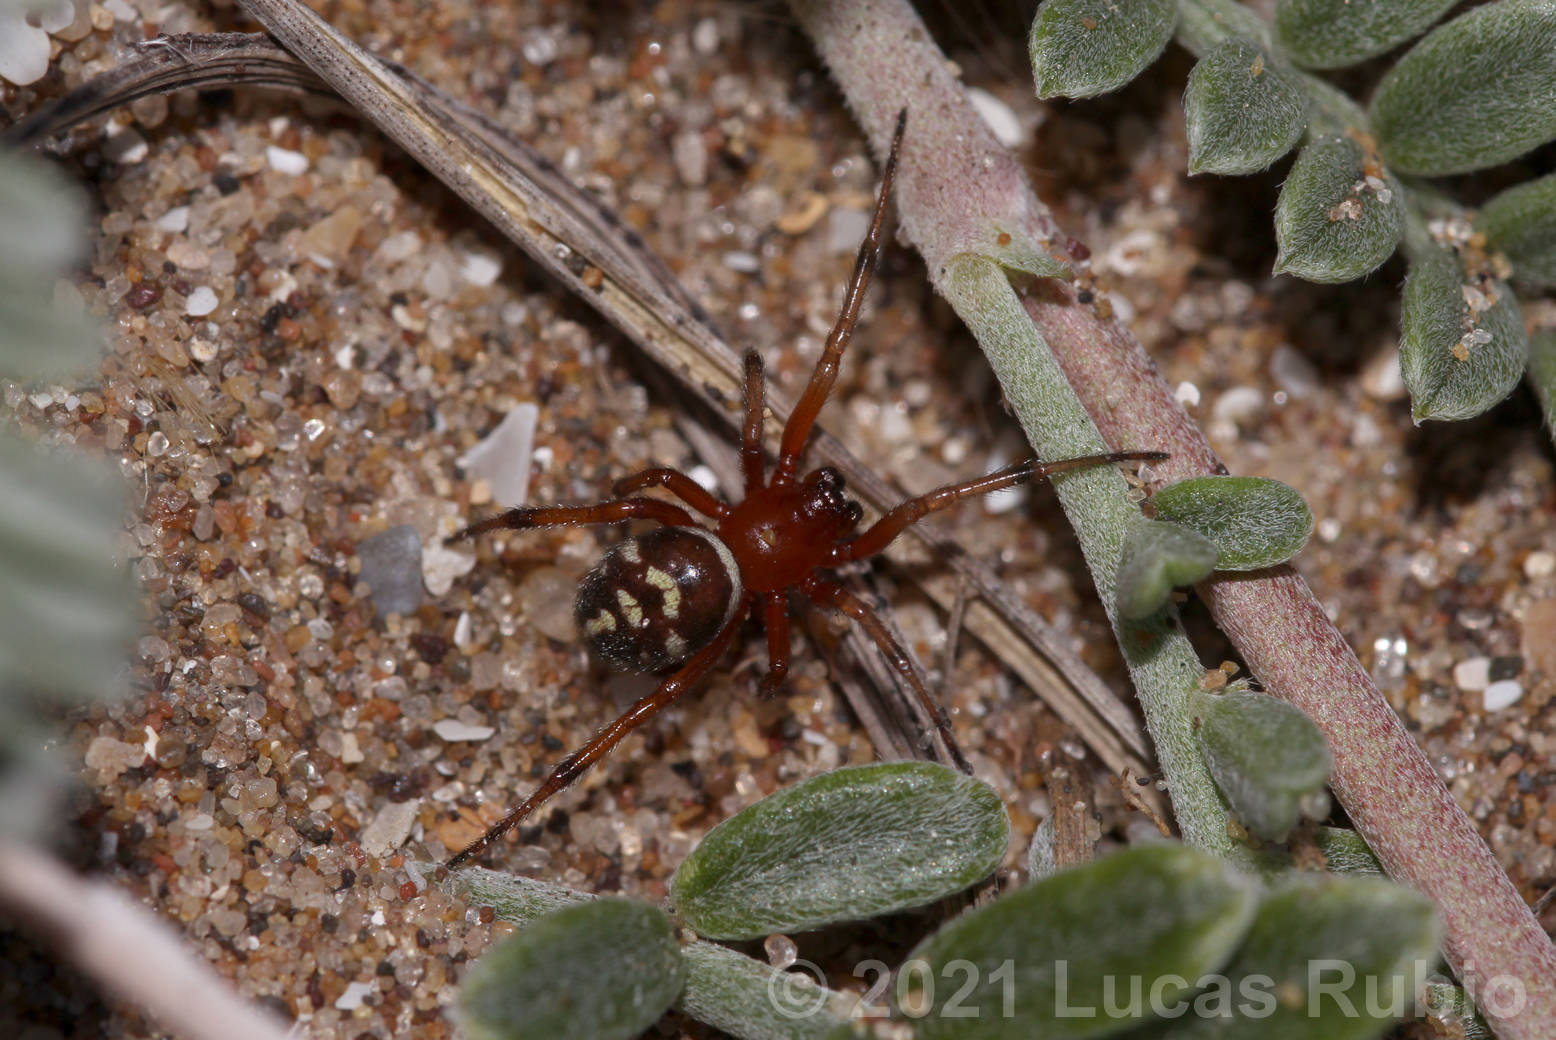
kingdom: Animalia
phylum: Arthropoda
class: Arachnida
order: Araneae
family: Theridiidae
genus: Steatoda
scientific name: Steatoda ancorata
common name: Cobweb spiders
